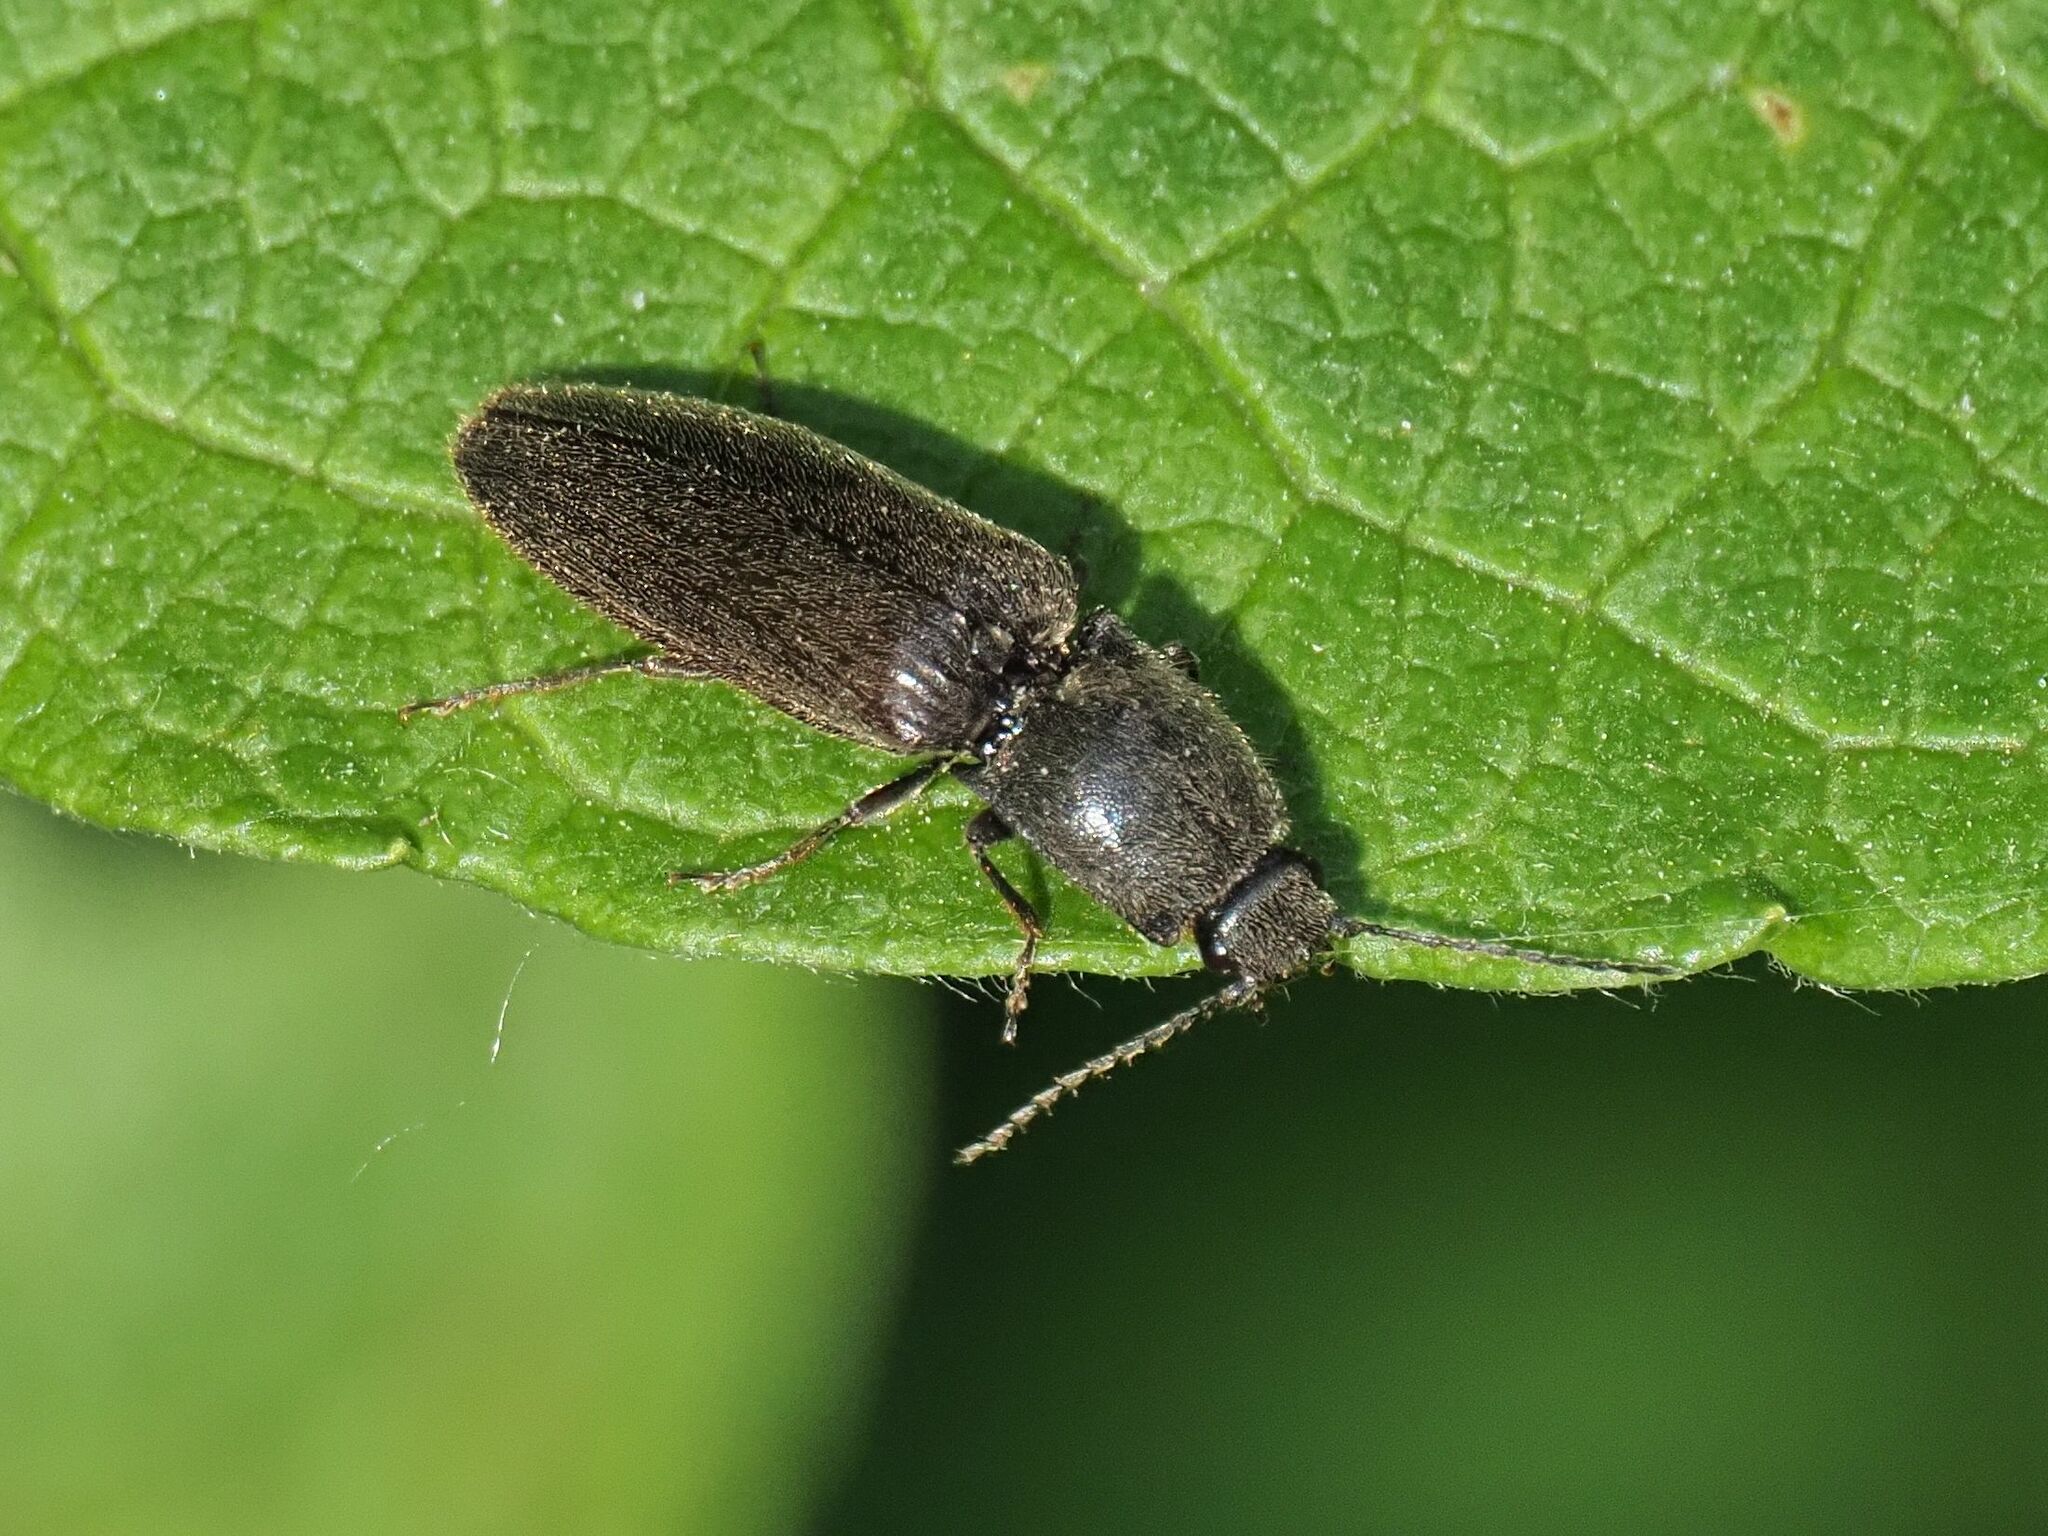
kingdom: Animalia
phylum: Arthropoda
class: Insecta
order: Coleoptera
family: Elateridae
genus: Athous
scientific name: Athous haemorrhoidalis
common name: Red-brown click beetle
